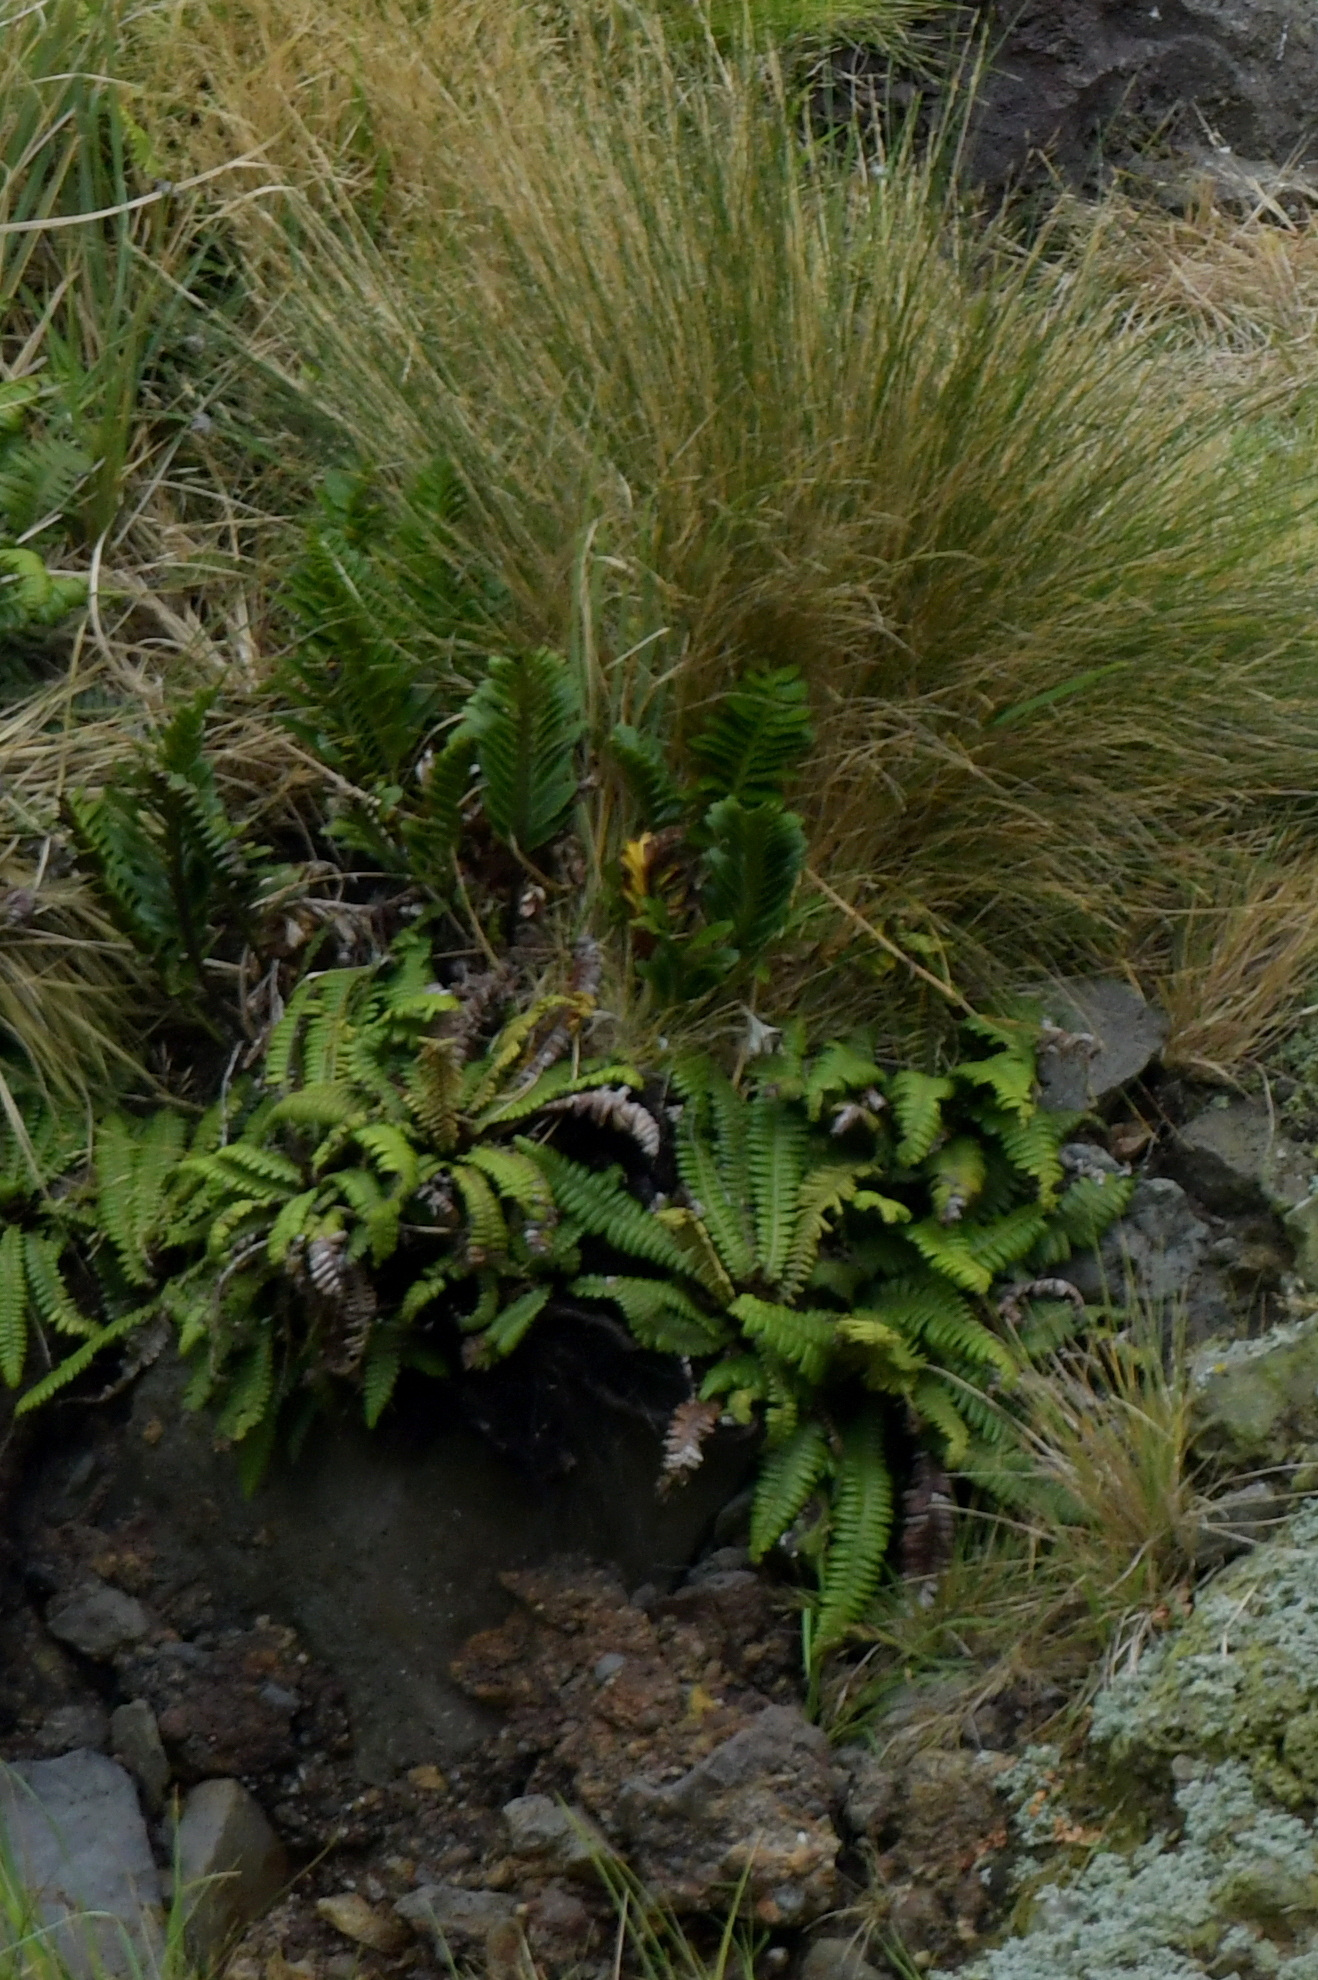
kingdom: Plantae
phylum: Tracheophyta
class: Polypodiopsida
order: Polypodiales
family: Blechnaceae
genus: Austroblechnum
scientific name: Austroblechnum durum
